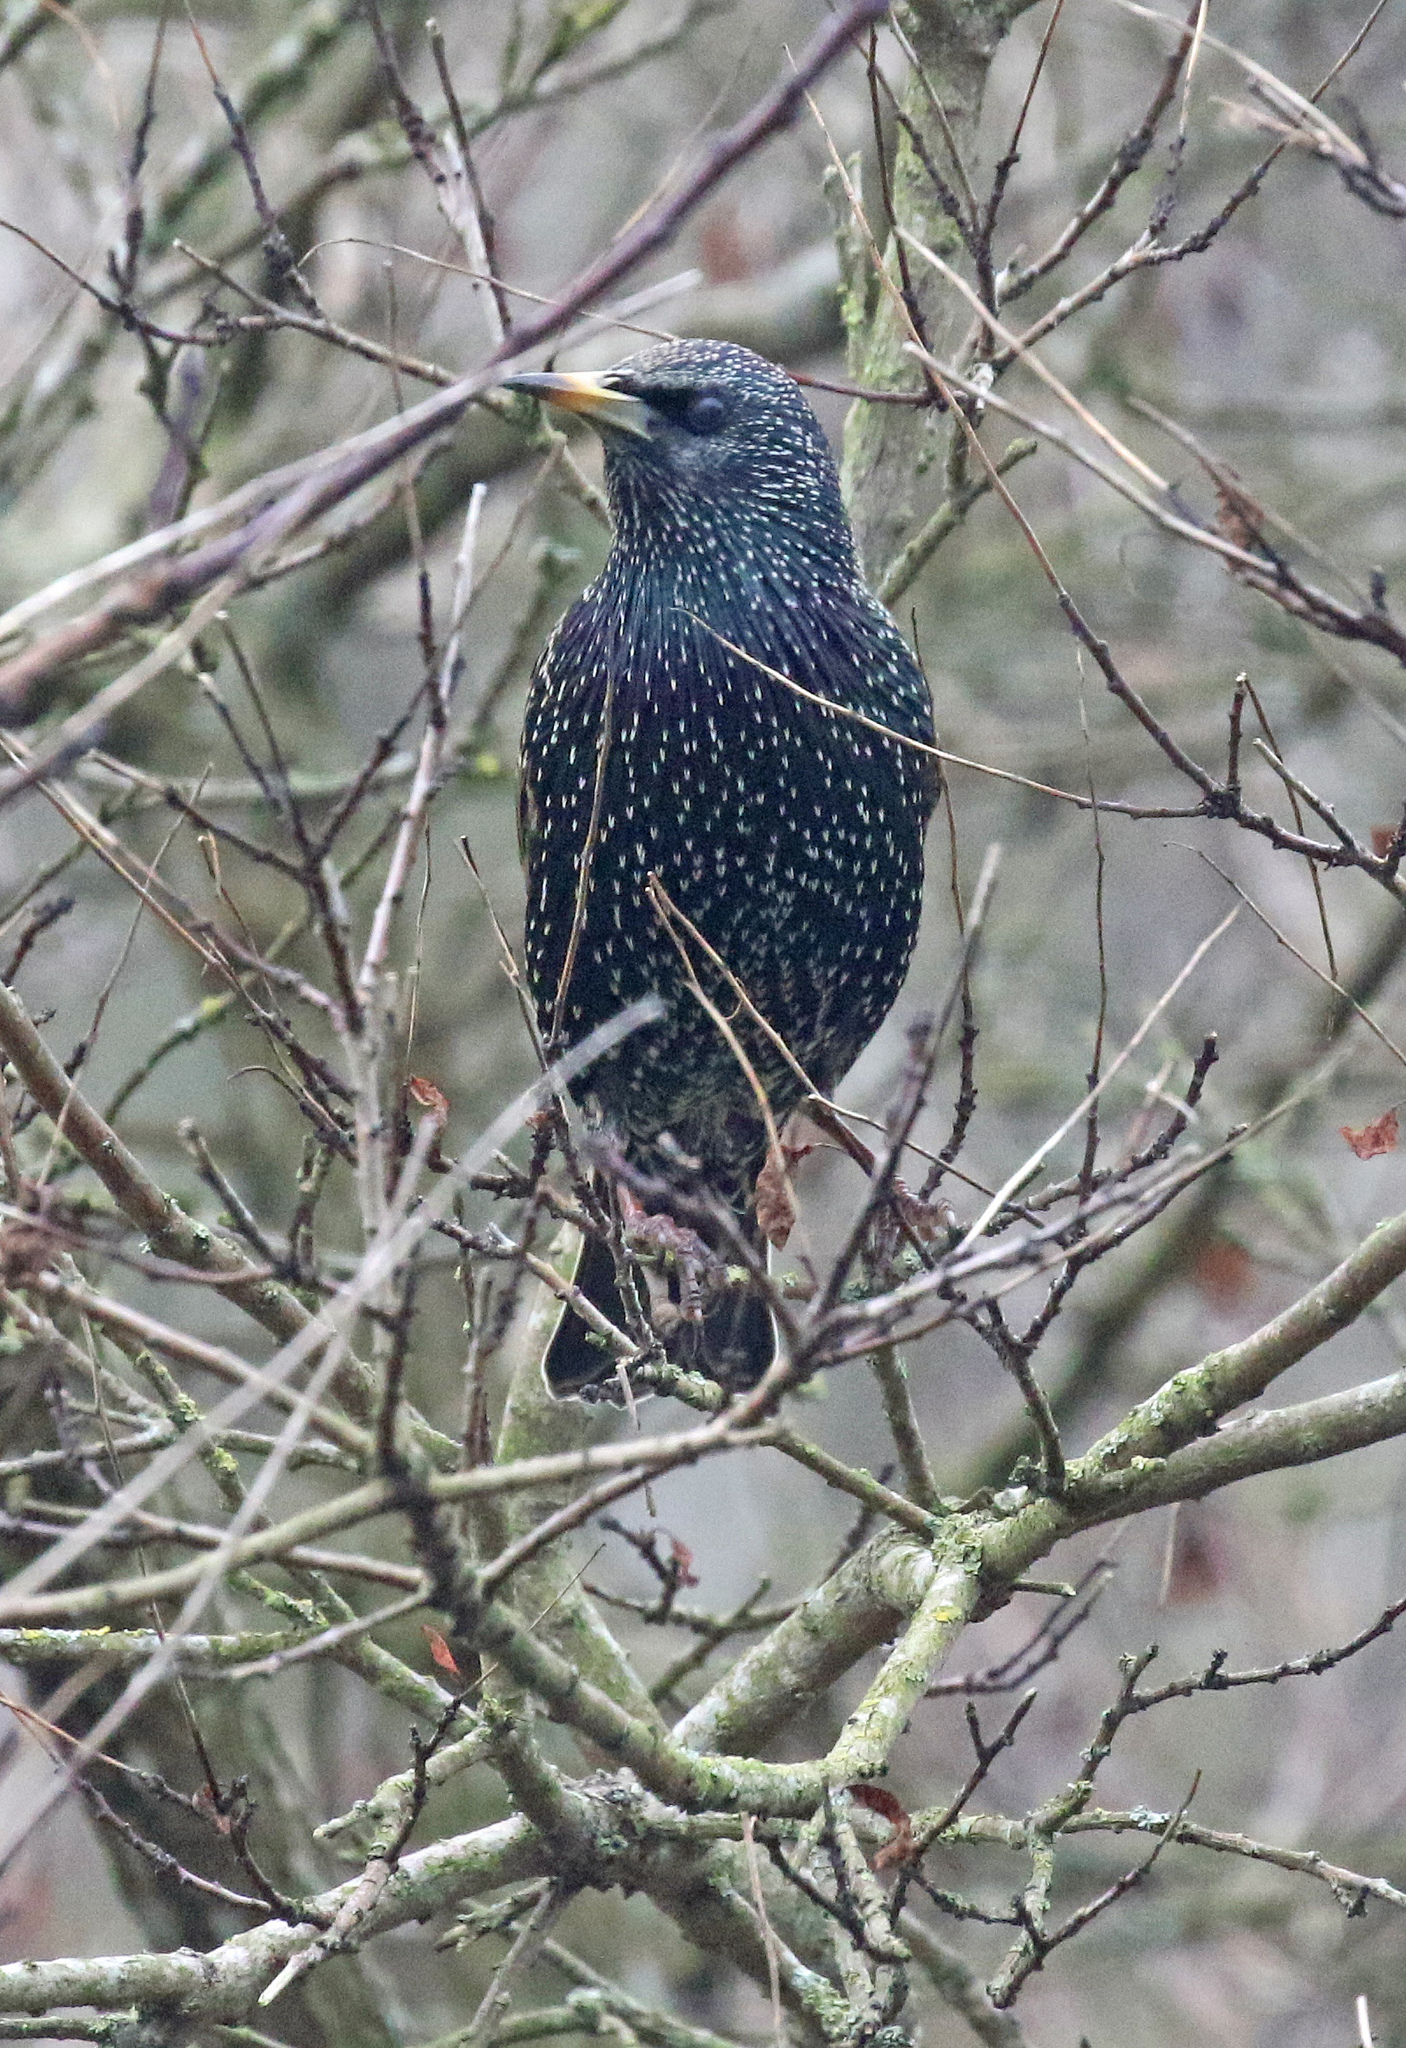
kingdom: Animalia
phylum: Chordata
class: Aves
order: Passeriformes
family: Sturnidae
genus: Sturnus
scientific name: Sturnus vulgaris
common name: Common starling
